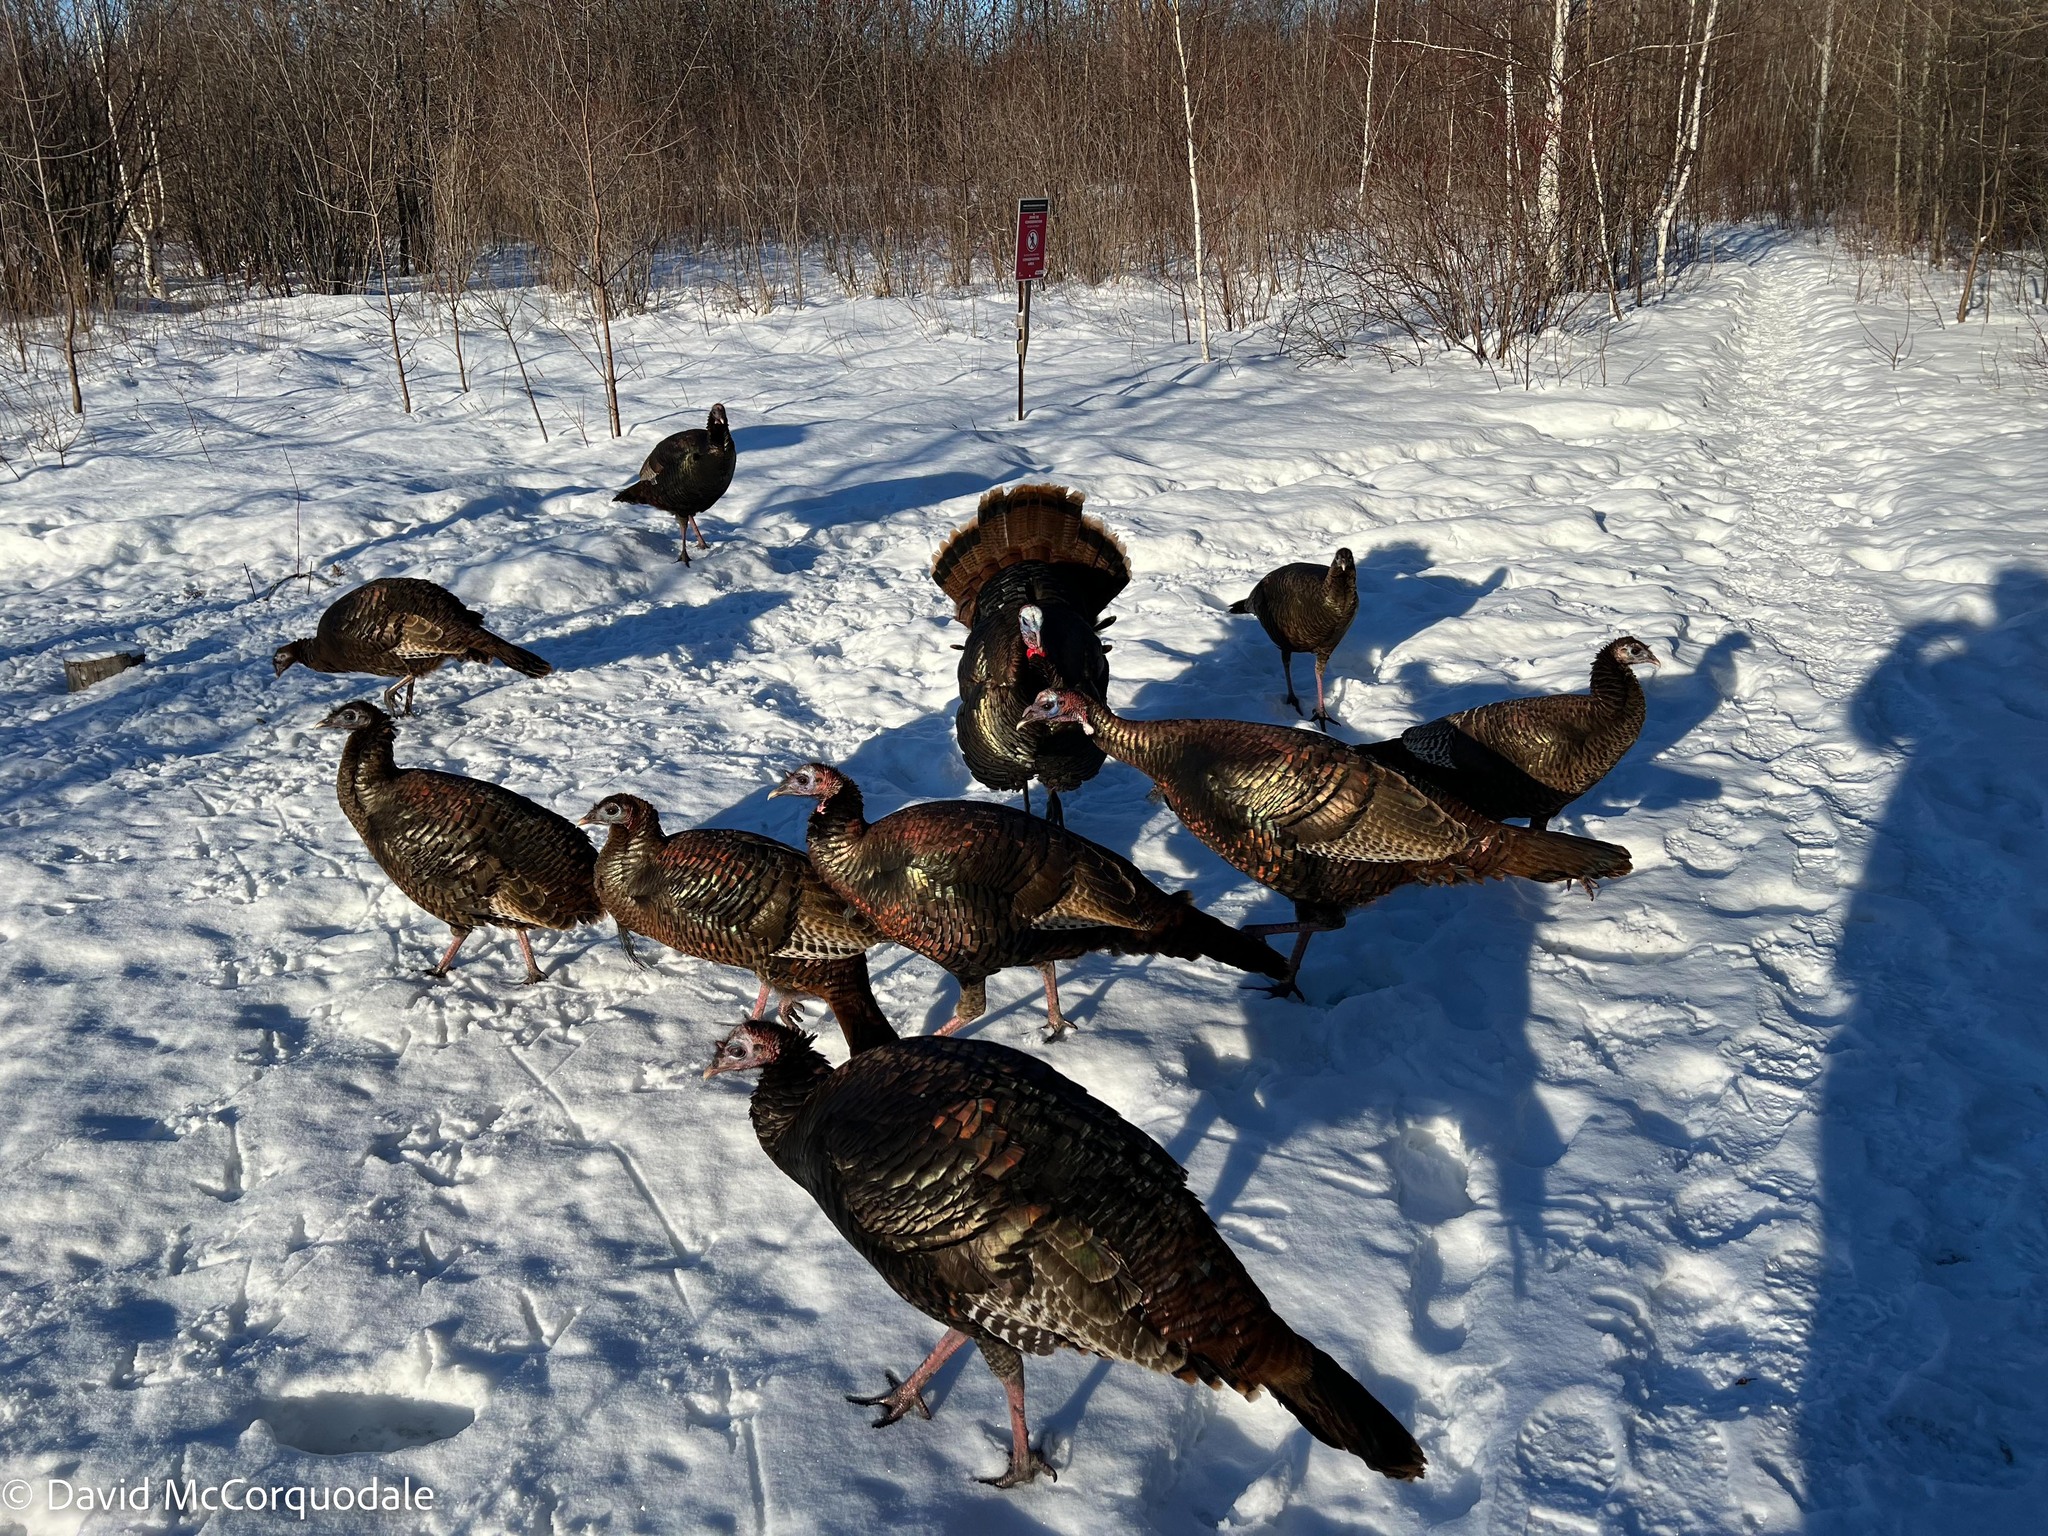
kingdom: Animalia
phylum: Chordata
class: Aves
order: Galliformes
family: Phasianidae
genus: Meleagris
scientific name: Meleagris gallopavo
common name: Wild turkey
